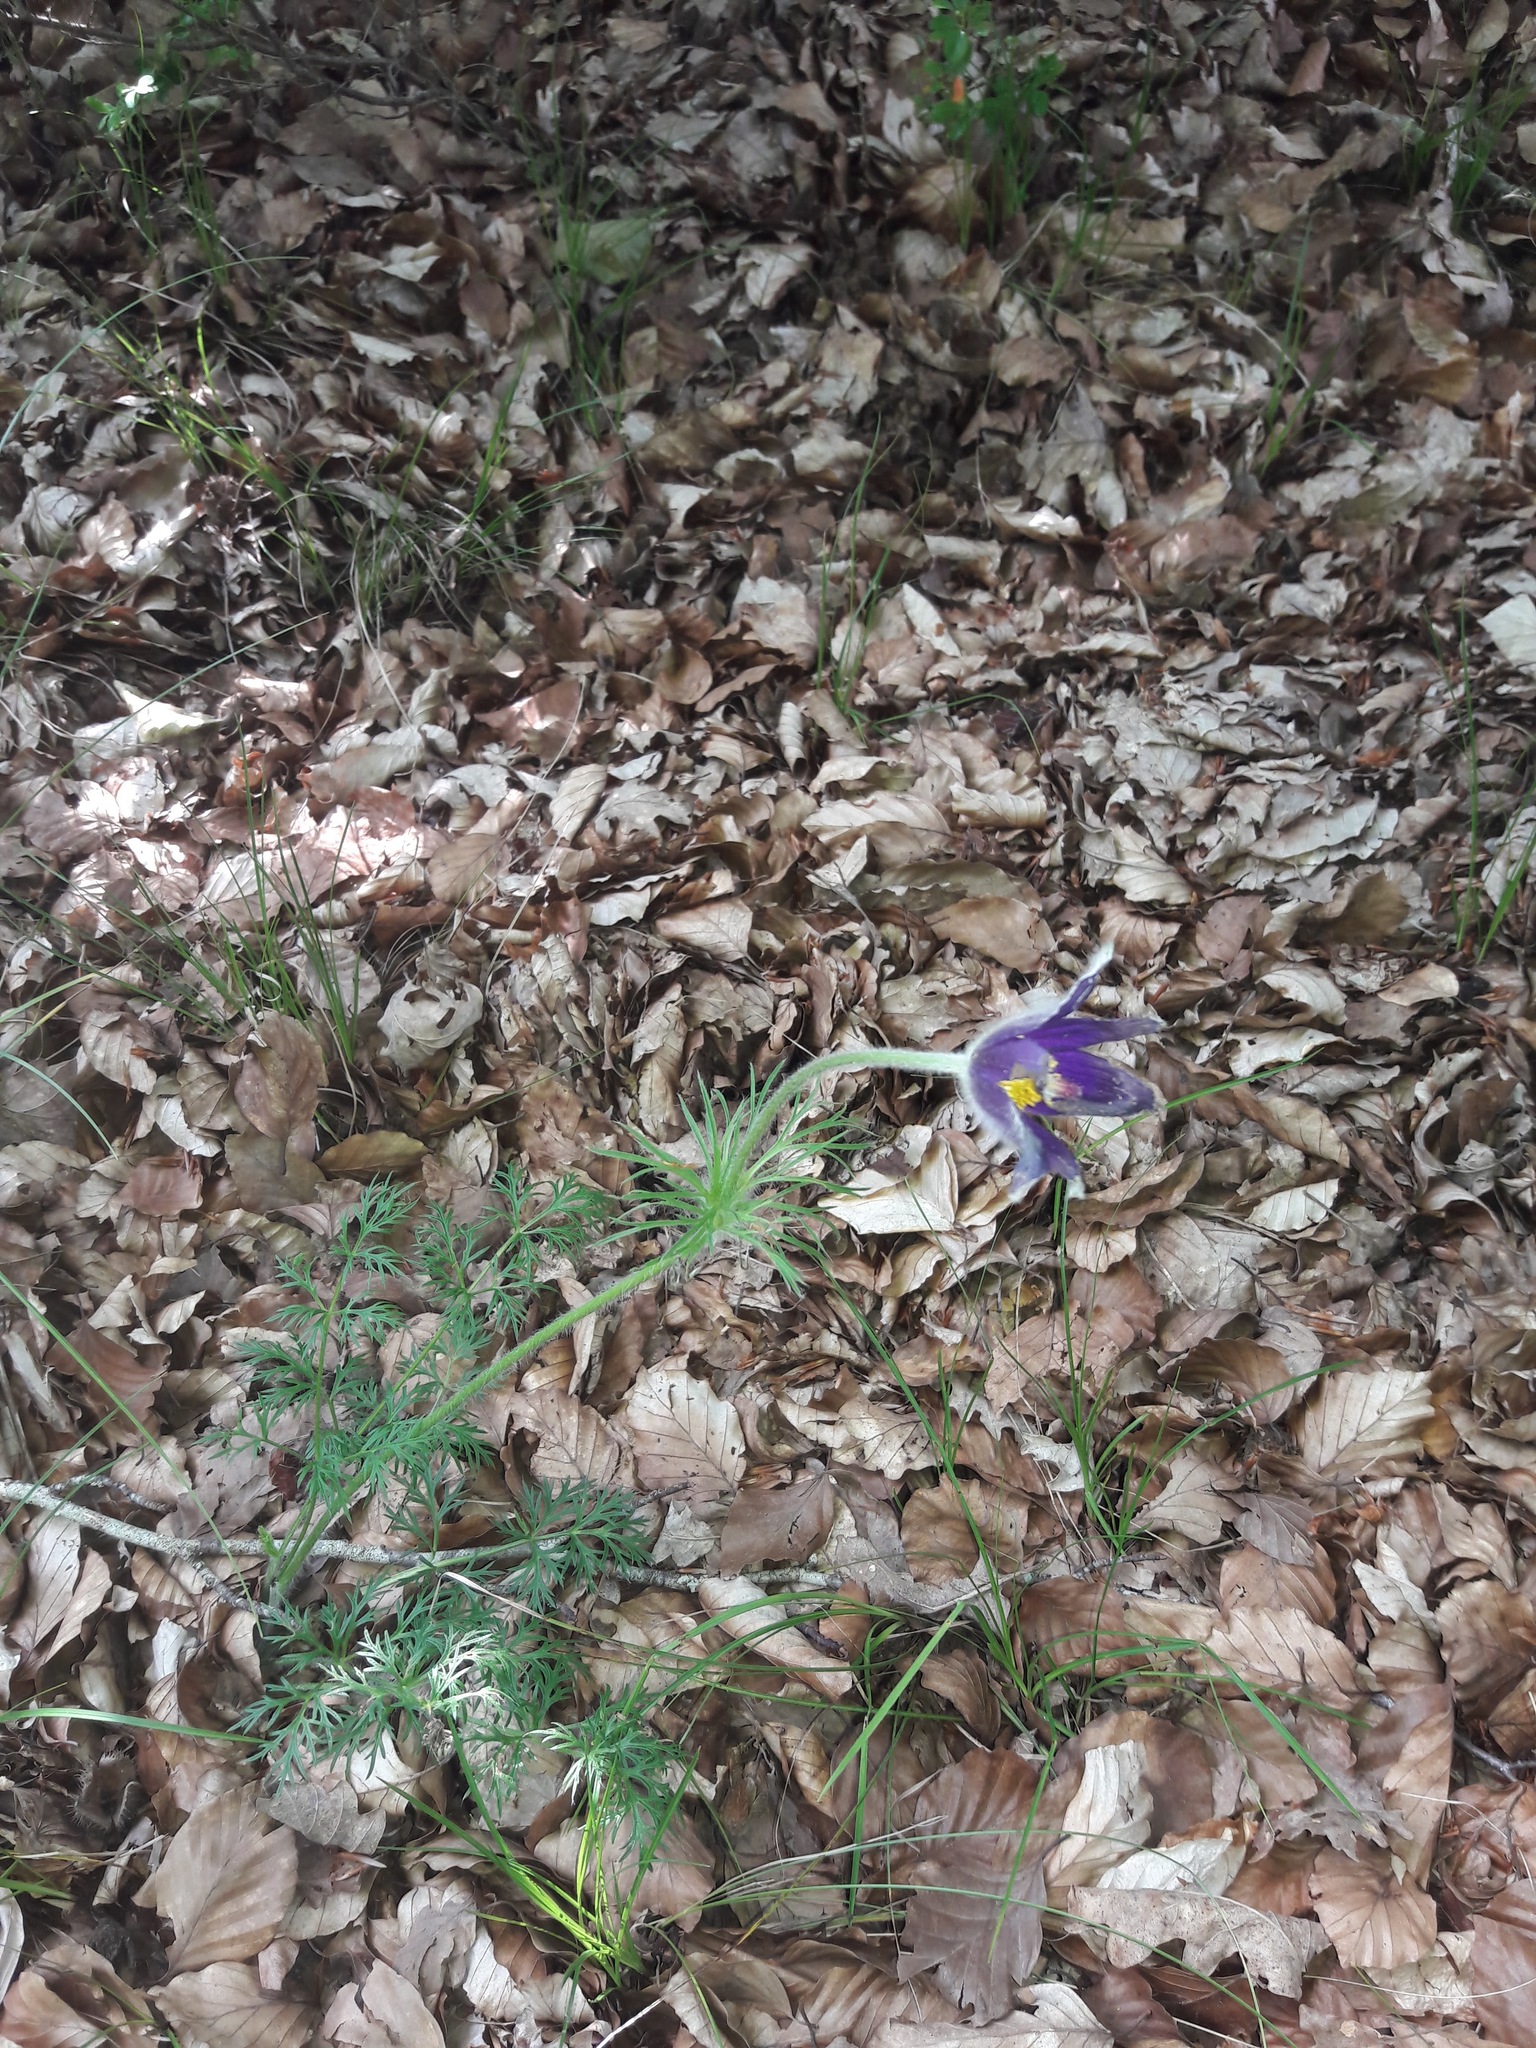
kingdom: Plantae
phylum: Tracheophyta
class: Magnoliopsida
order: Ranunculales
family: Ranunculaceae
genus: Pulsatilla
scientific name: Pulsatilla vulgaris
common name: Pasqueflower
